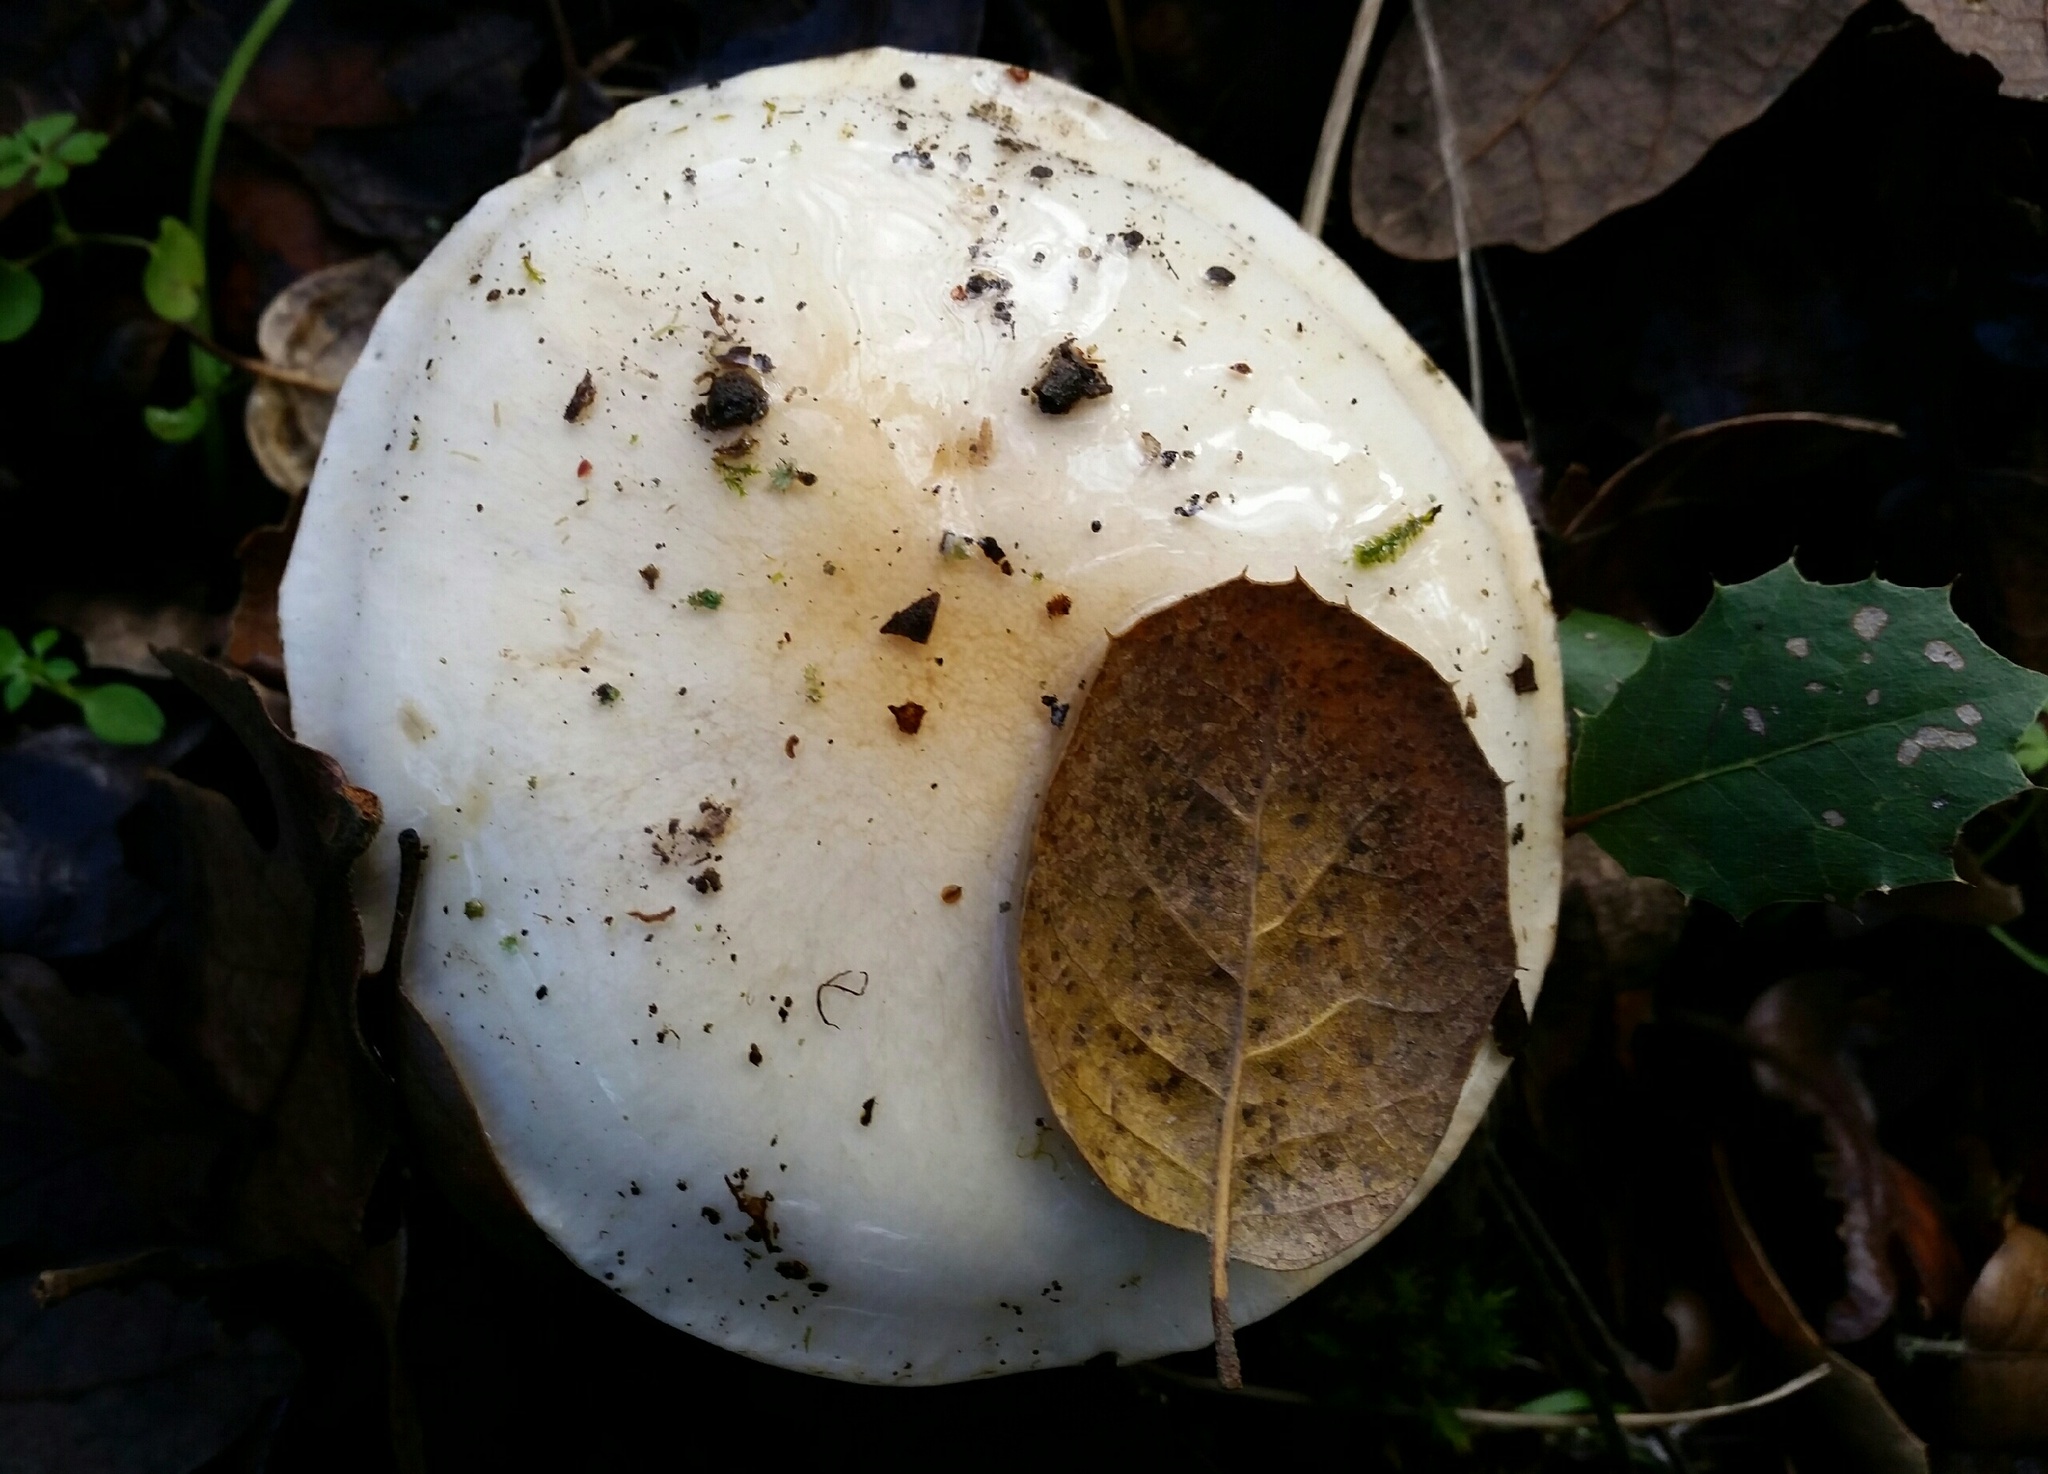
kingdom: Fungi
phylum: Basidiomycota
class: Agaricomycetes
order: Agaricales
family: Hymenogastraceae
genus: Hebeloma
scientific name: Hebeloma crustuliniforme
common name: Poison pie
